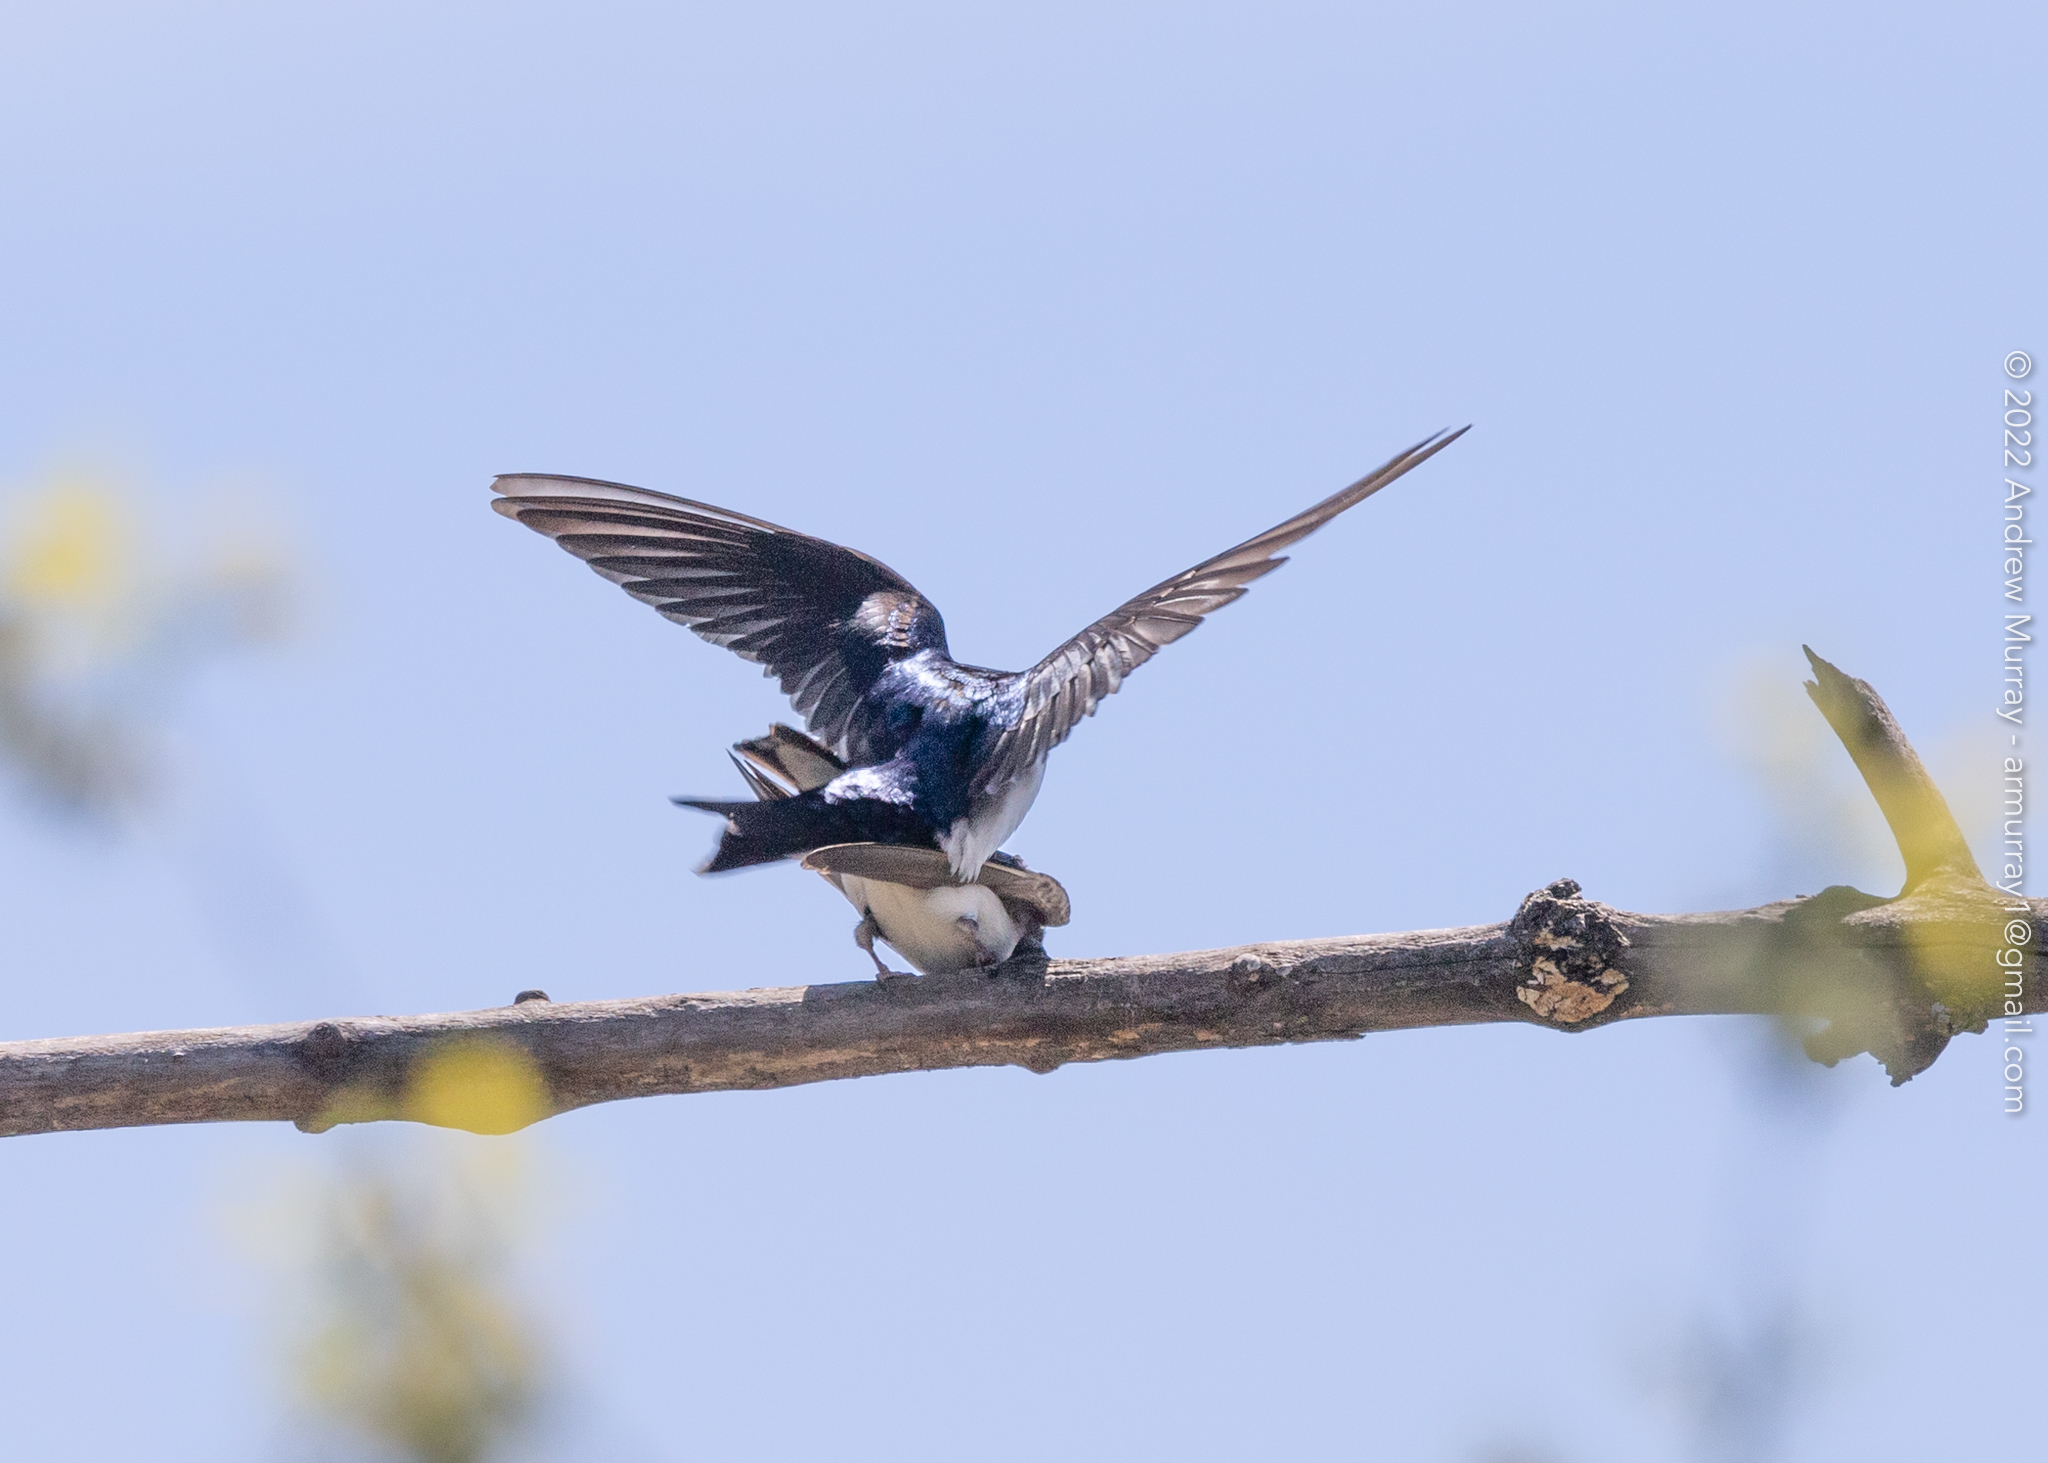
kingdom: Animalia
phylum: Chordata
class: Aves
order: Passeriformes
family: Hirundinidae
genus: Tachycineta
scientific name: Tachycineta bicolor
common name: Tree swallow
